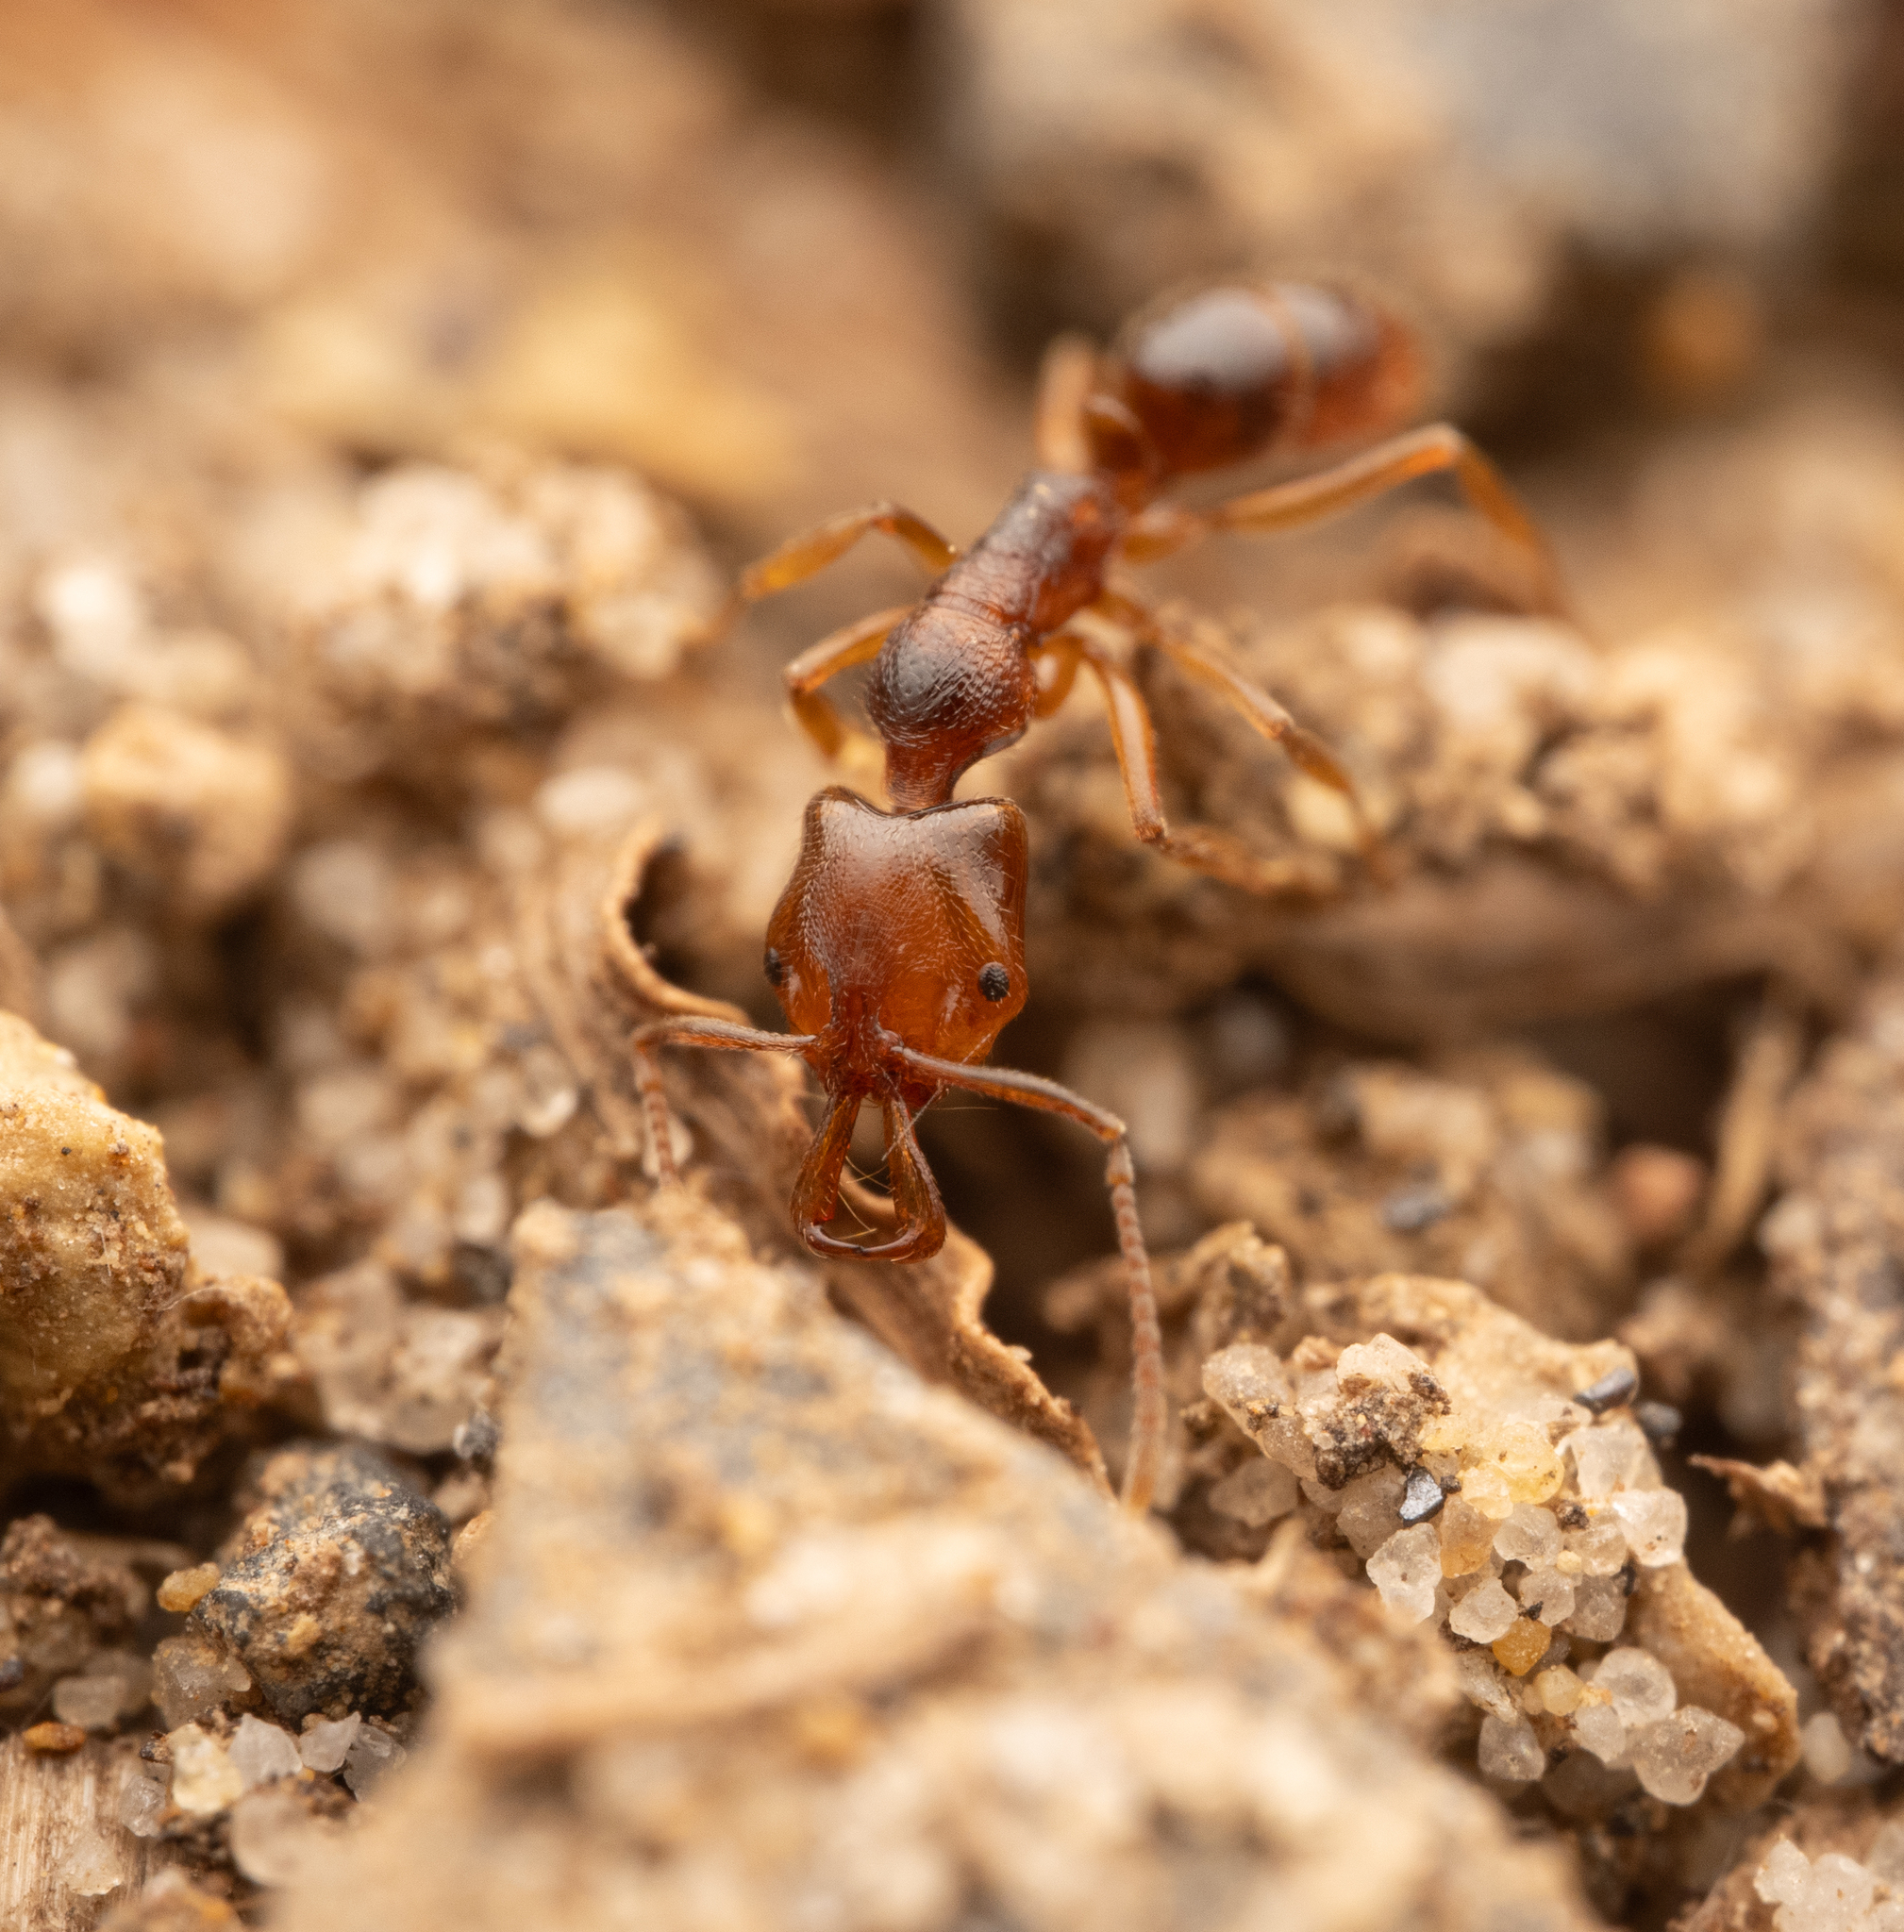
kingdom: Animalia
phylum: Arthropoda
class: Insecta
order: Hymenoptera
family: Formicidae
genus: Anochetus
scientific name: Anochetus graeffei
